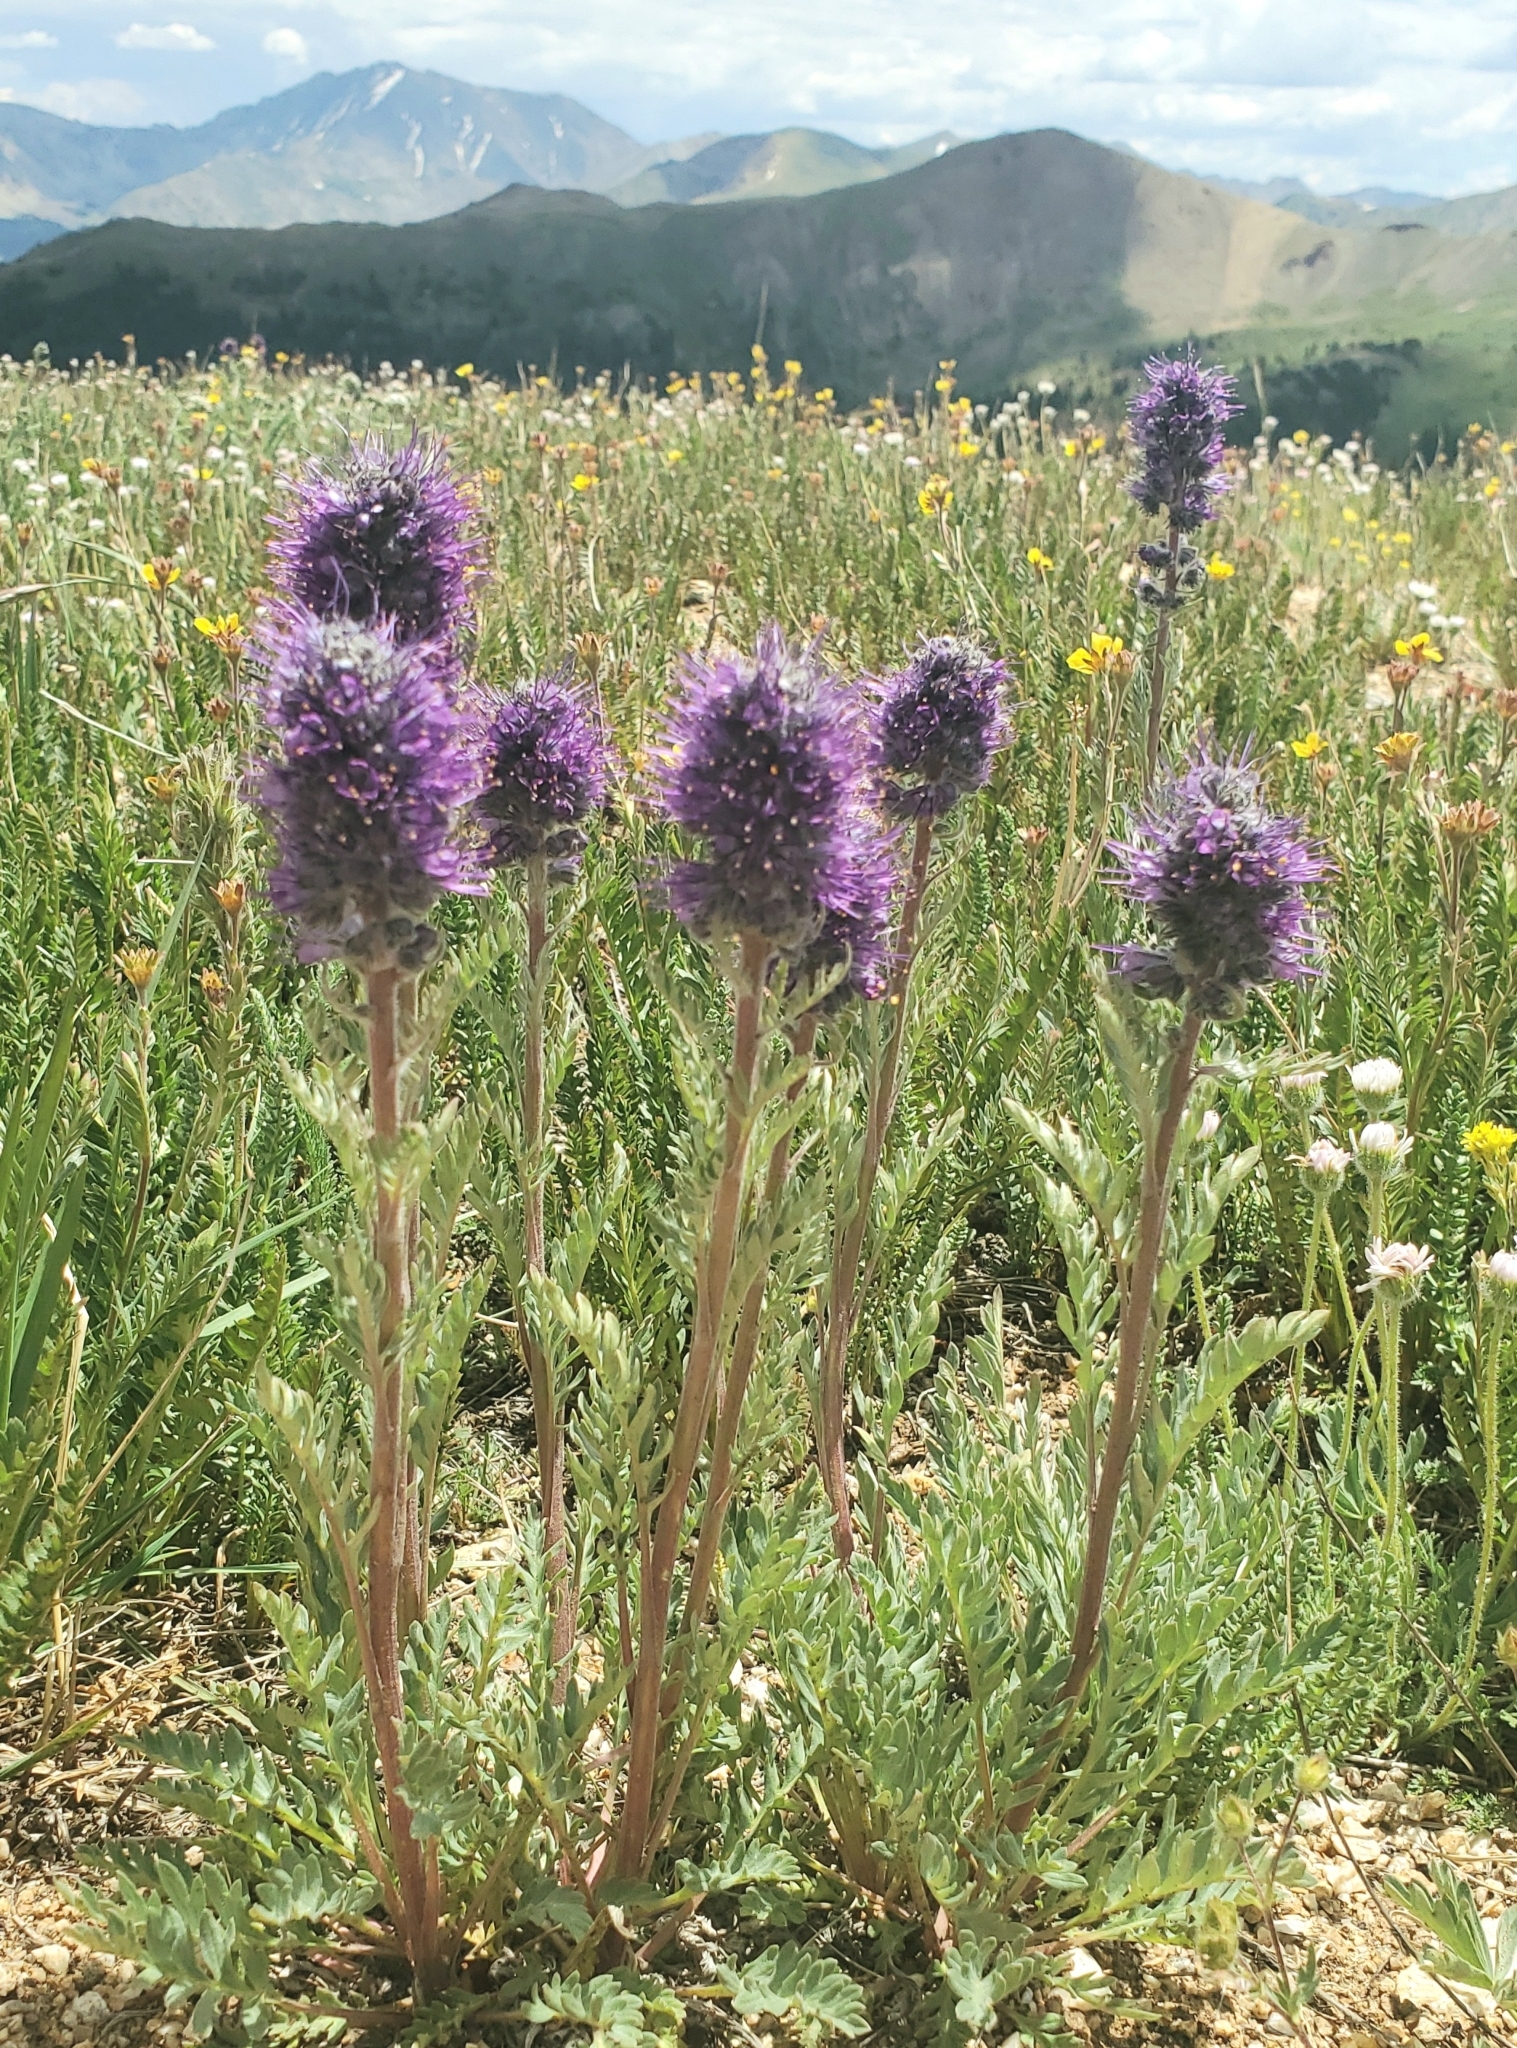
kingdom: Plantae
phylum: Tracheophyta
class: Magnoliopsida
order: Boraginales
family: Hydrophyllaceae
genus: Phacelia
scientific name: Phacelia sericea
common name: Silky phacelia
